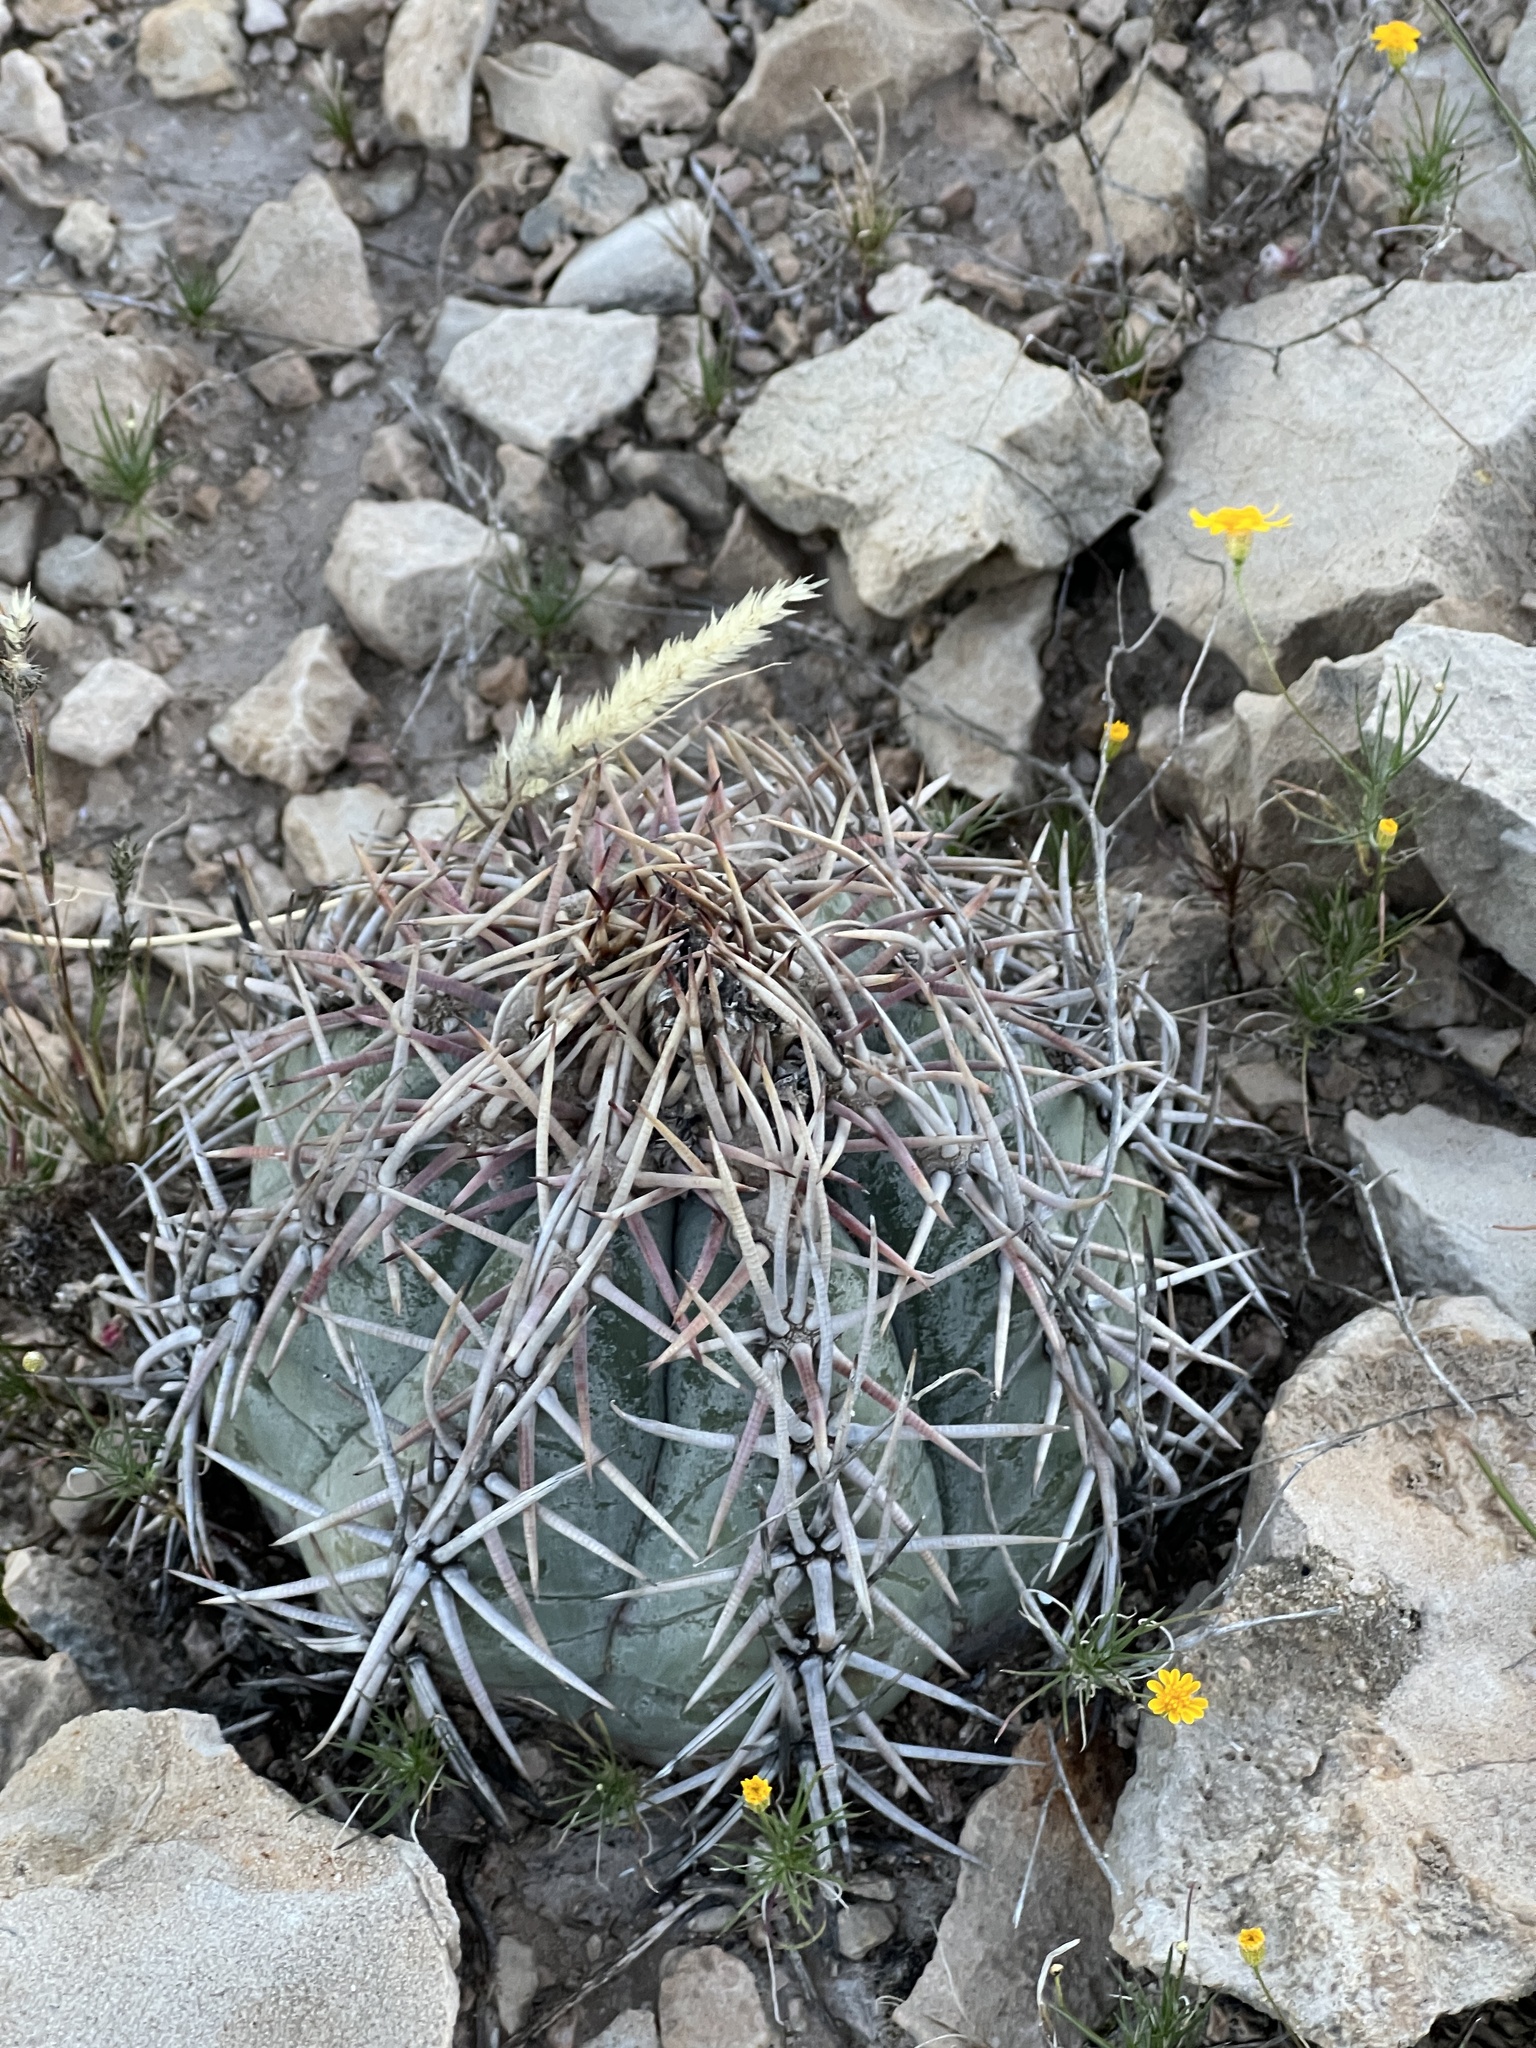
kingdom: Plantae
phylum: Tracheophyta
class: Magnoliopsida
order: Caryophyllales
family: Cactaceae
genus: Echinocactus
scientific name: Echinocactus horizonthalonius
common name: Devilshead
